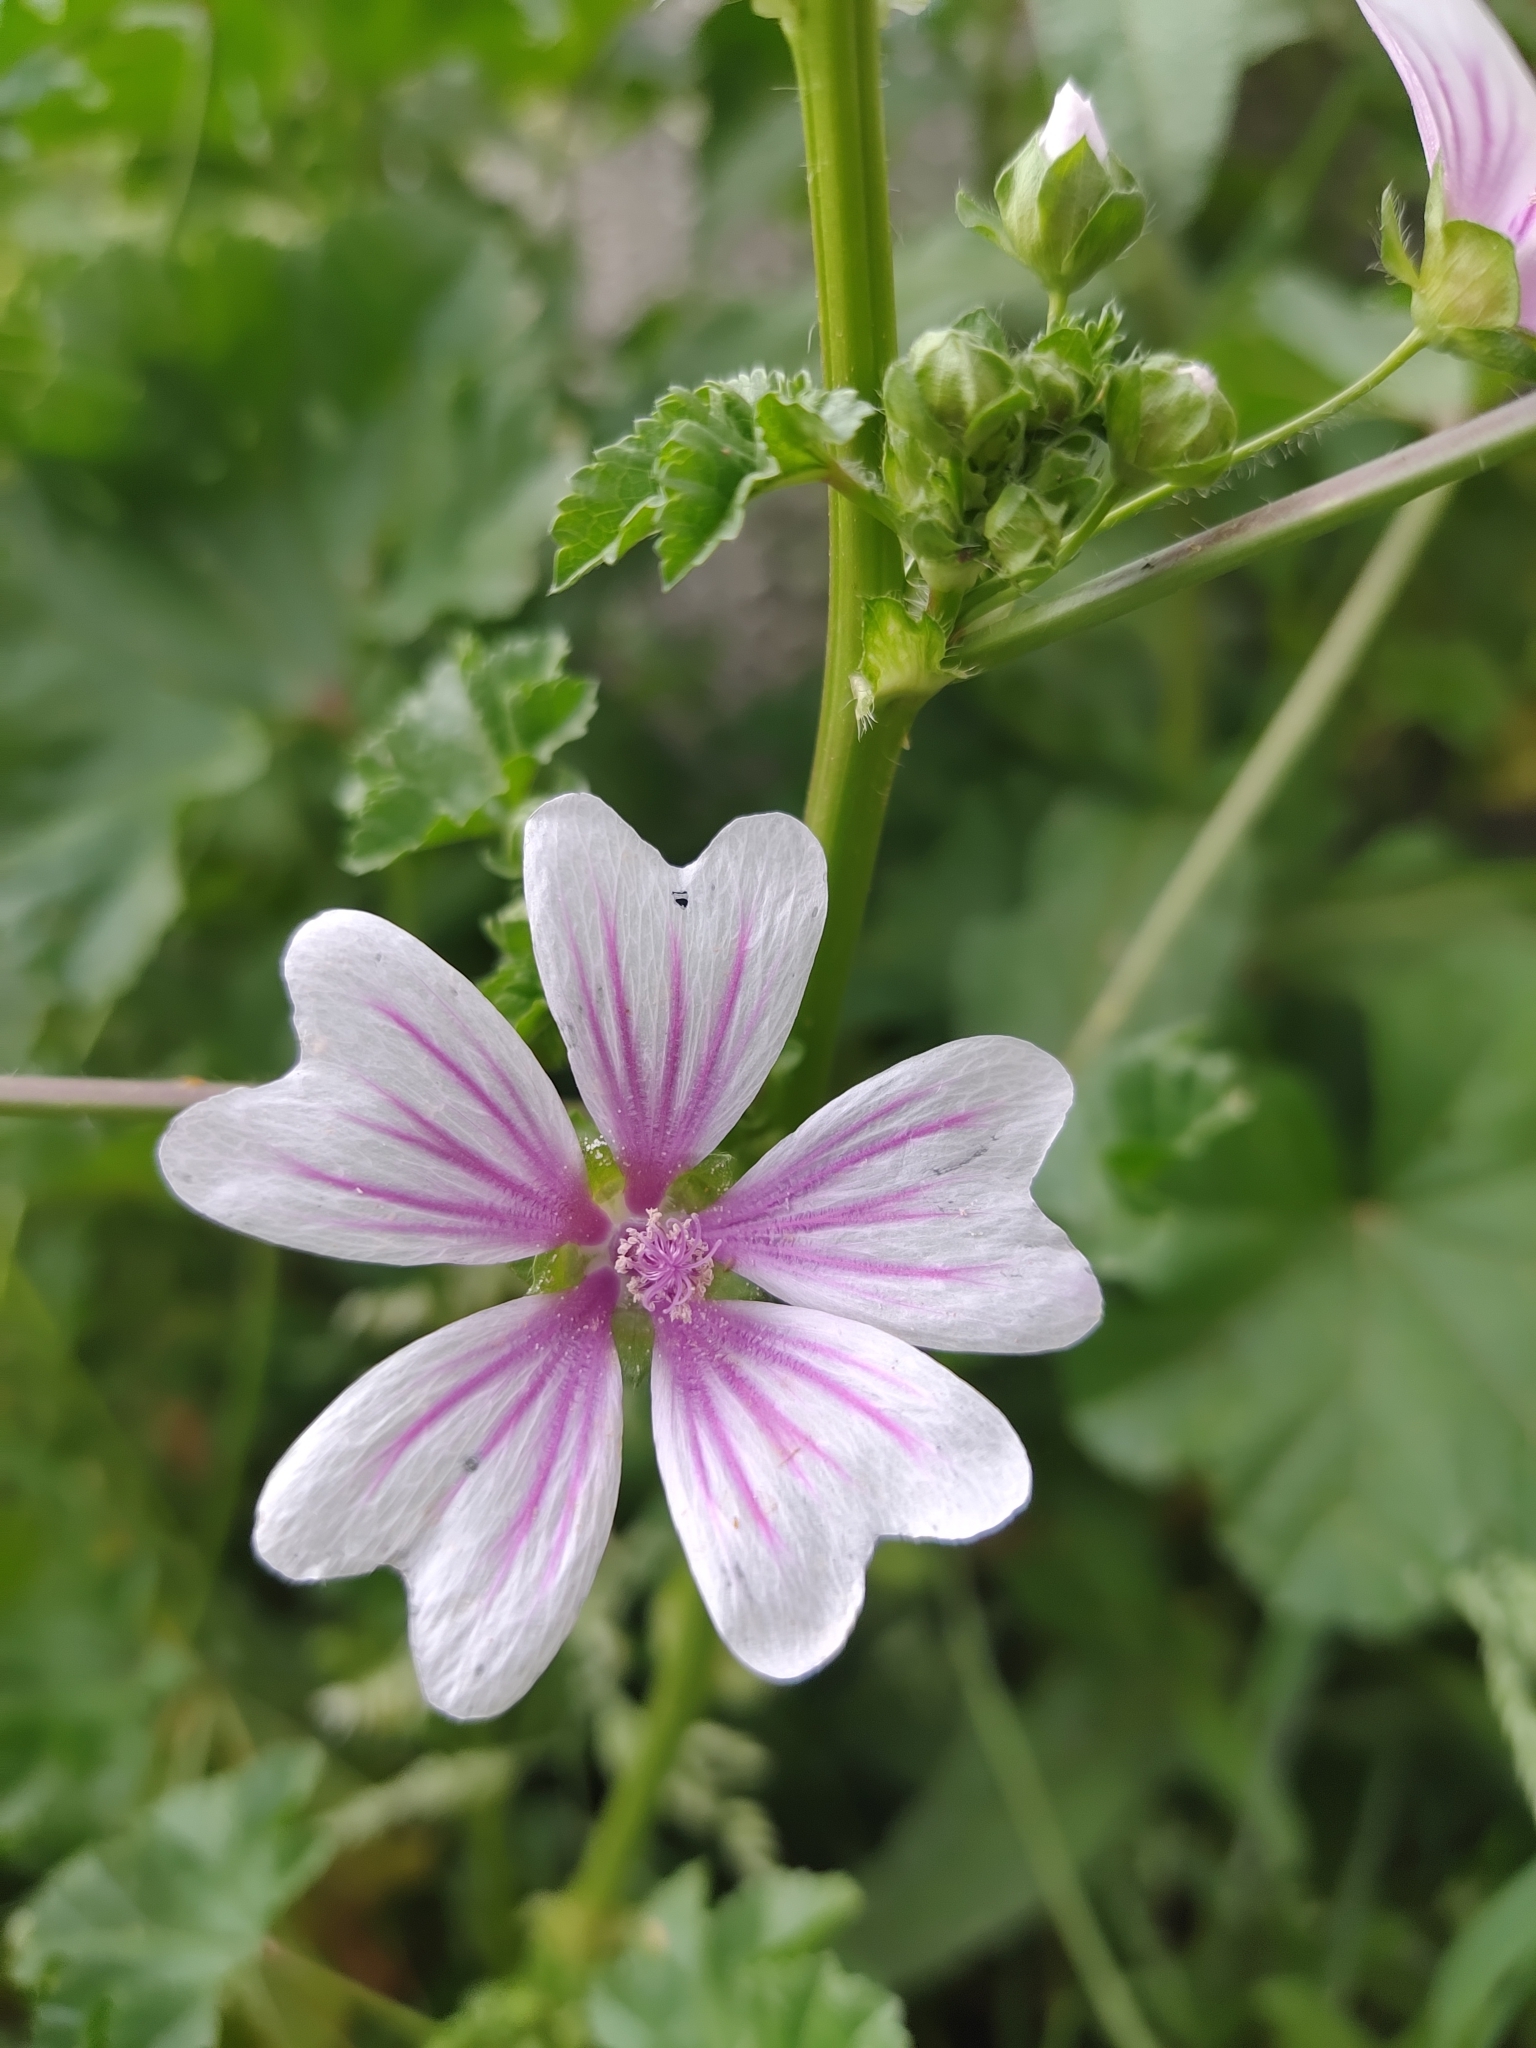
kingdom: Plantae
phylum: Tracheophyta
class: Magnoliopsida
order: Malvales
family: Malvaceae
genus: Malva
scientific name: Malva sylvestris
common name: Common mallow
